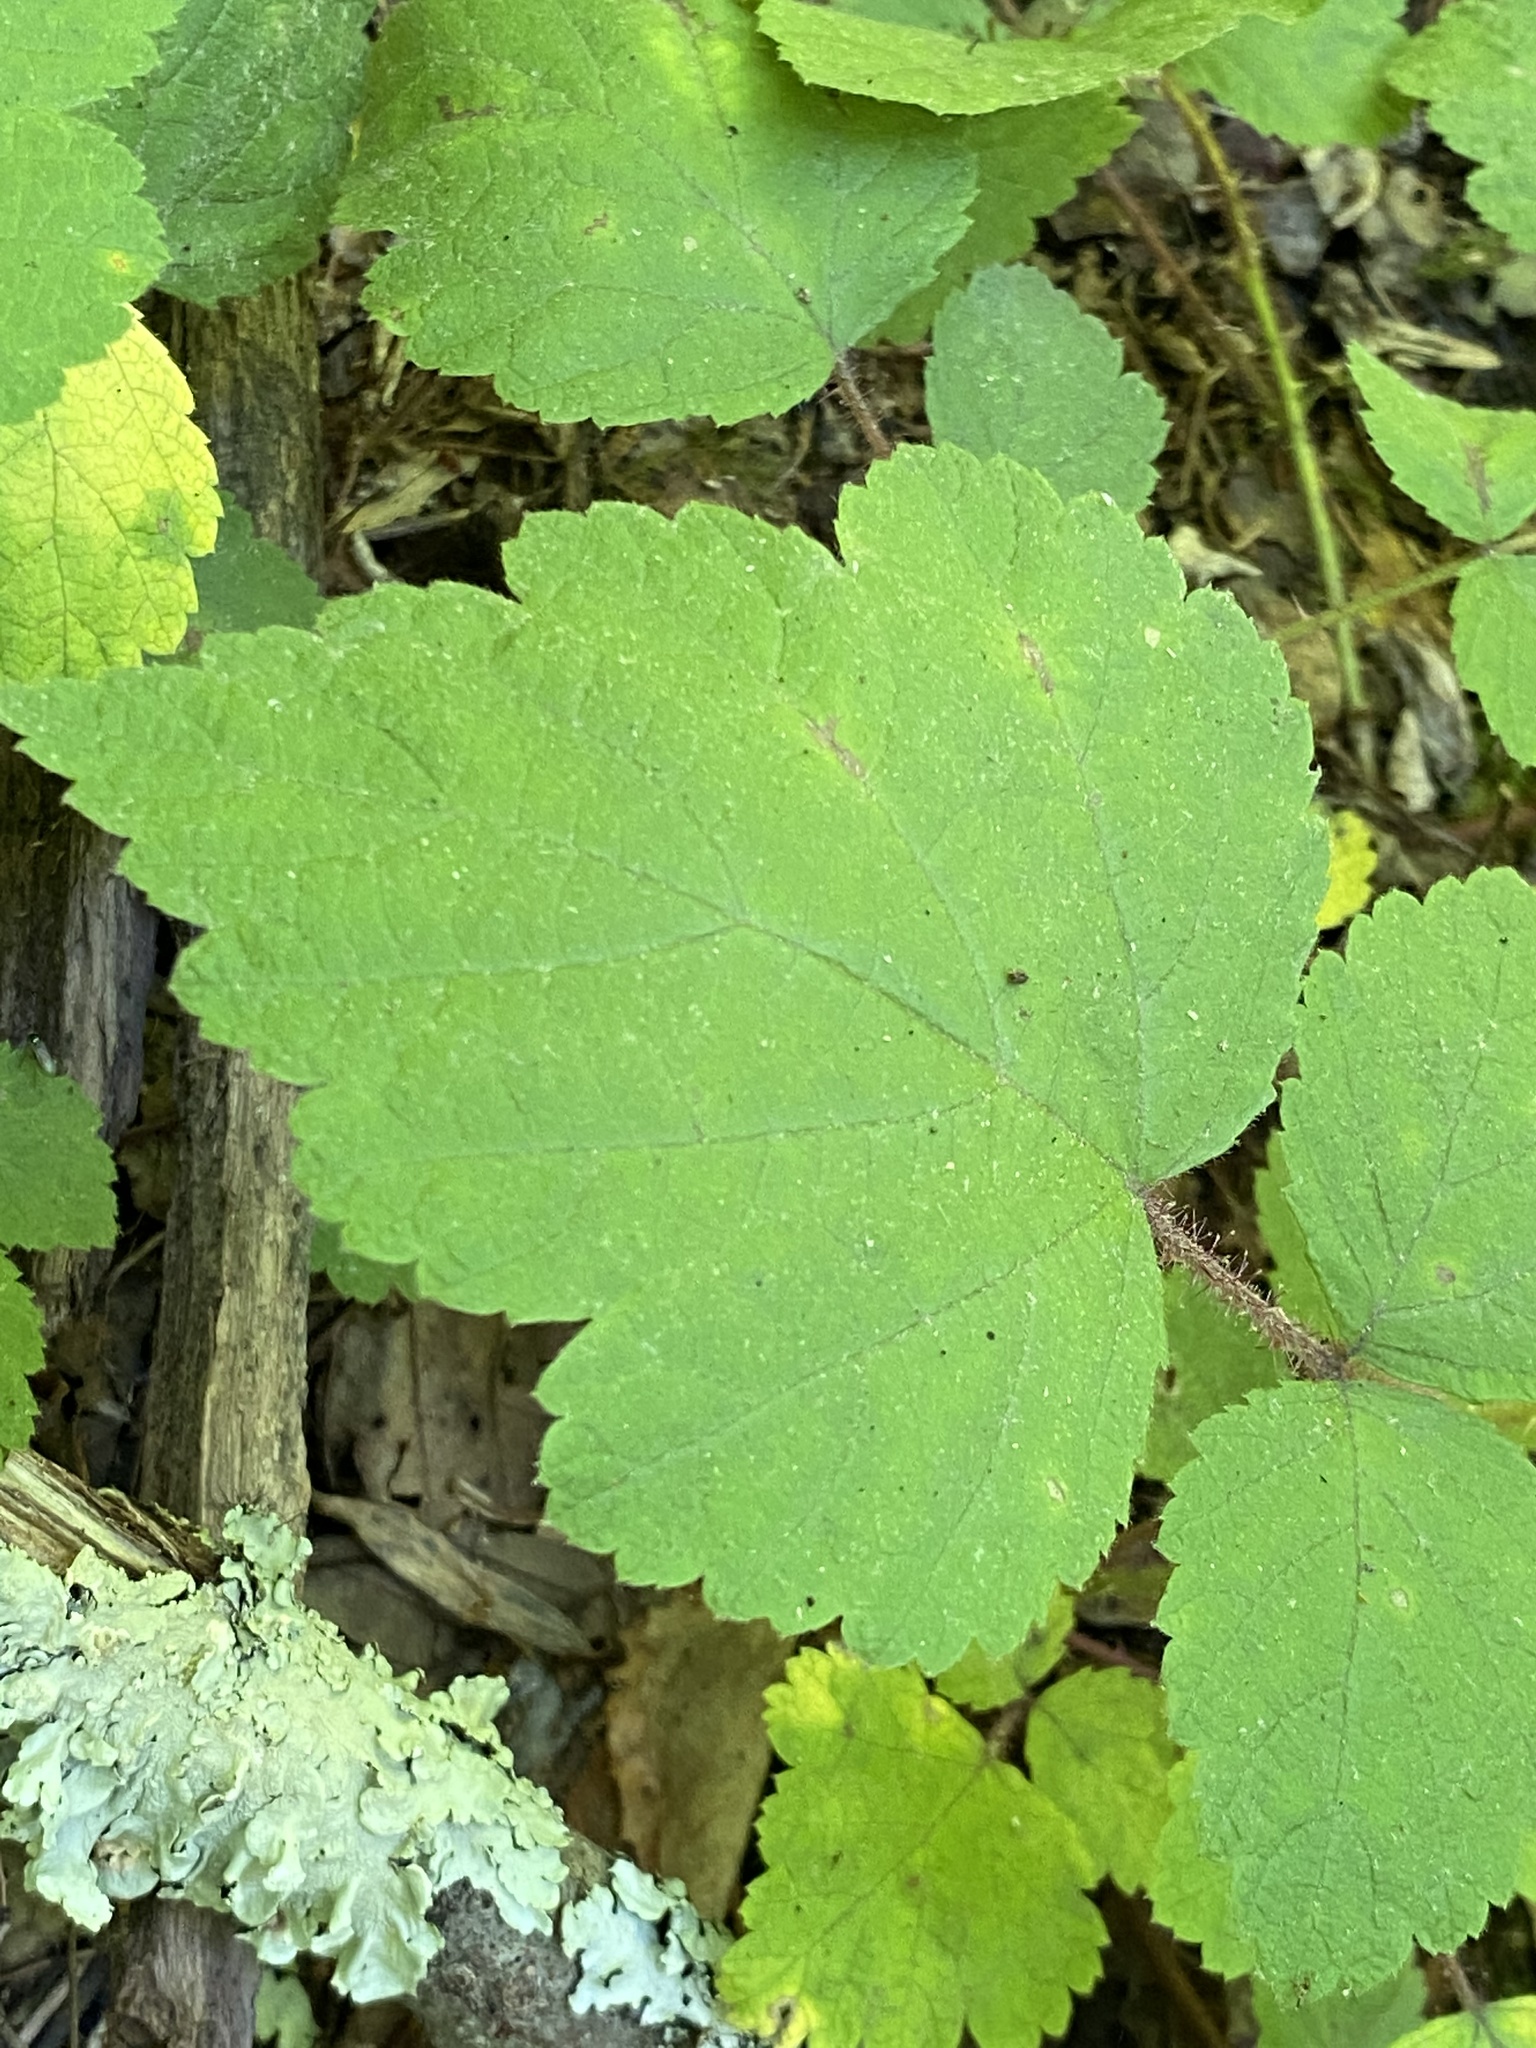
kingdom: Plantae
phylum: Tracheophyta
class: Magnoliopsida
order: Rosales
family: Rosaceae
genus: Rubus
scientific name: Rubus phoenicolasius
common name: Japanese wineberry
